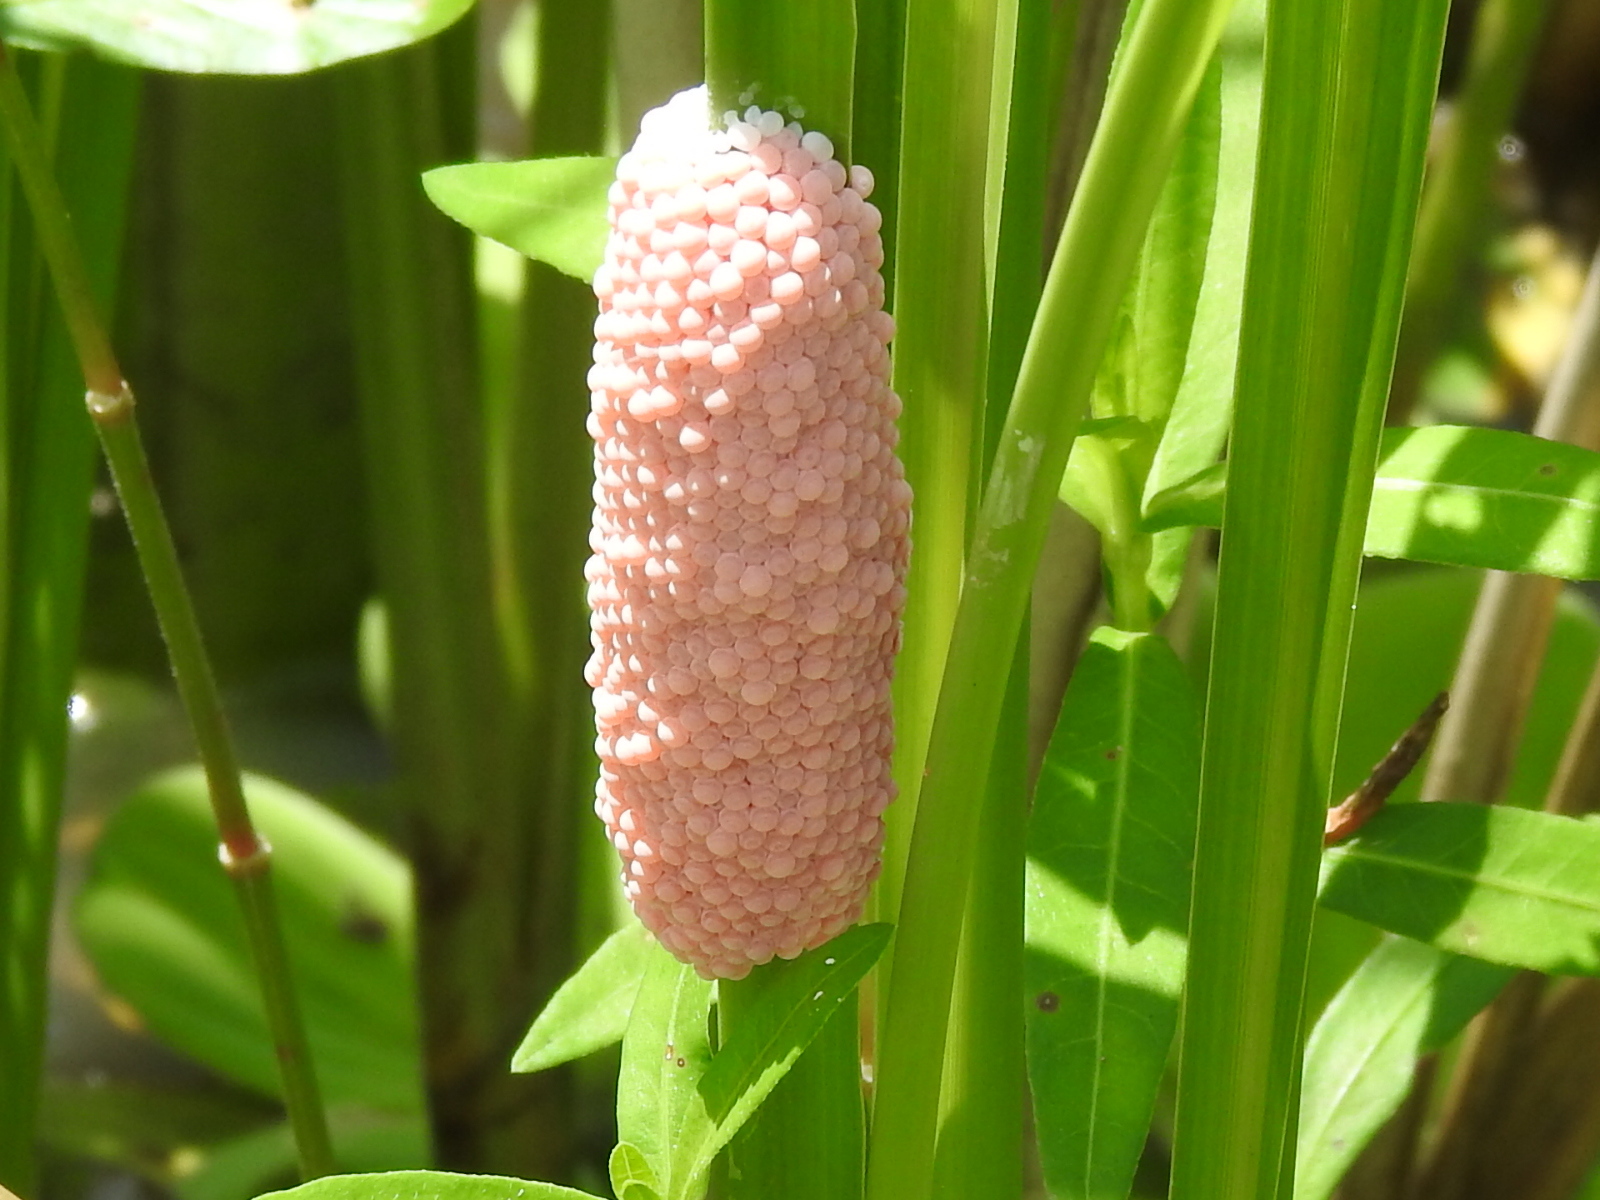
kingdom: Animalia
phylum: Mollusca
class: Gastropoda
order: Architaenioglossa
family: Ampullariidae
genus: Pomacea
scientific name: Pomacea maculata
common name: Giant applesnail
